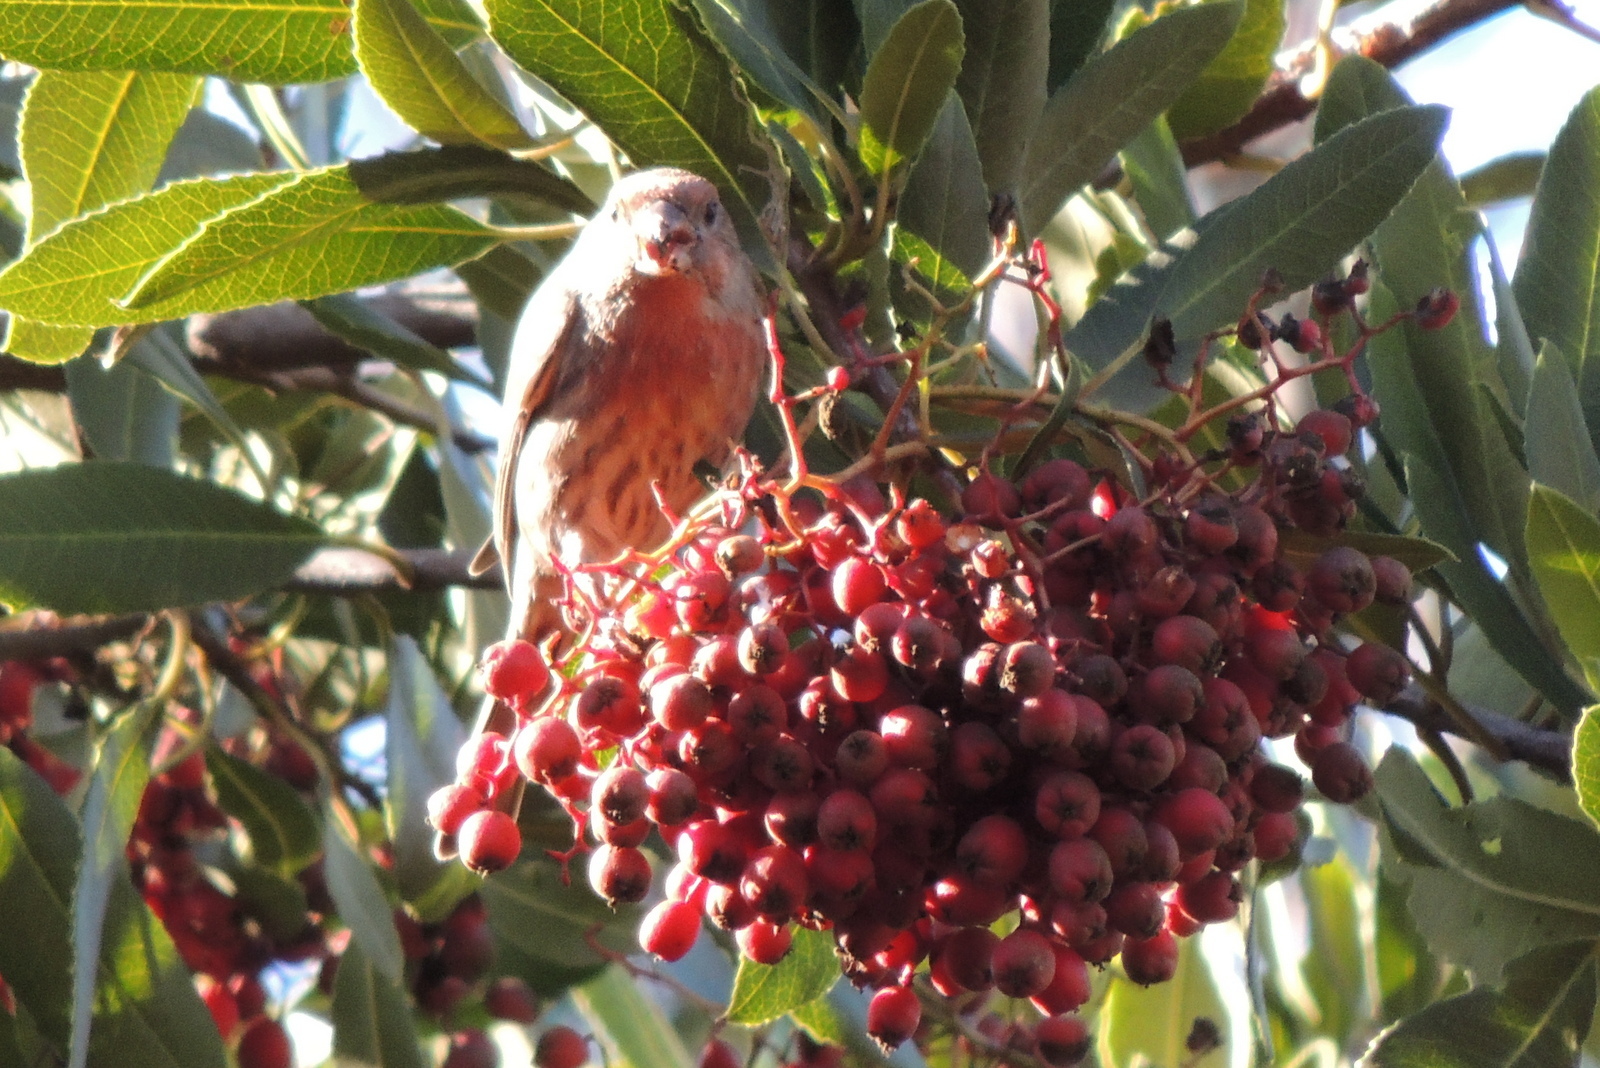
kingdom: Animalia
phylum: Chordata
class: Aves
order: Passeriformes
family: Fringillidae
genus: Haemorhous
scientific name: Haemorhous mexicanus
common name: House finch
